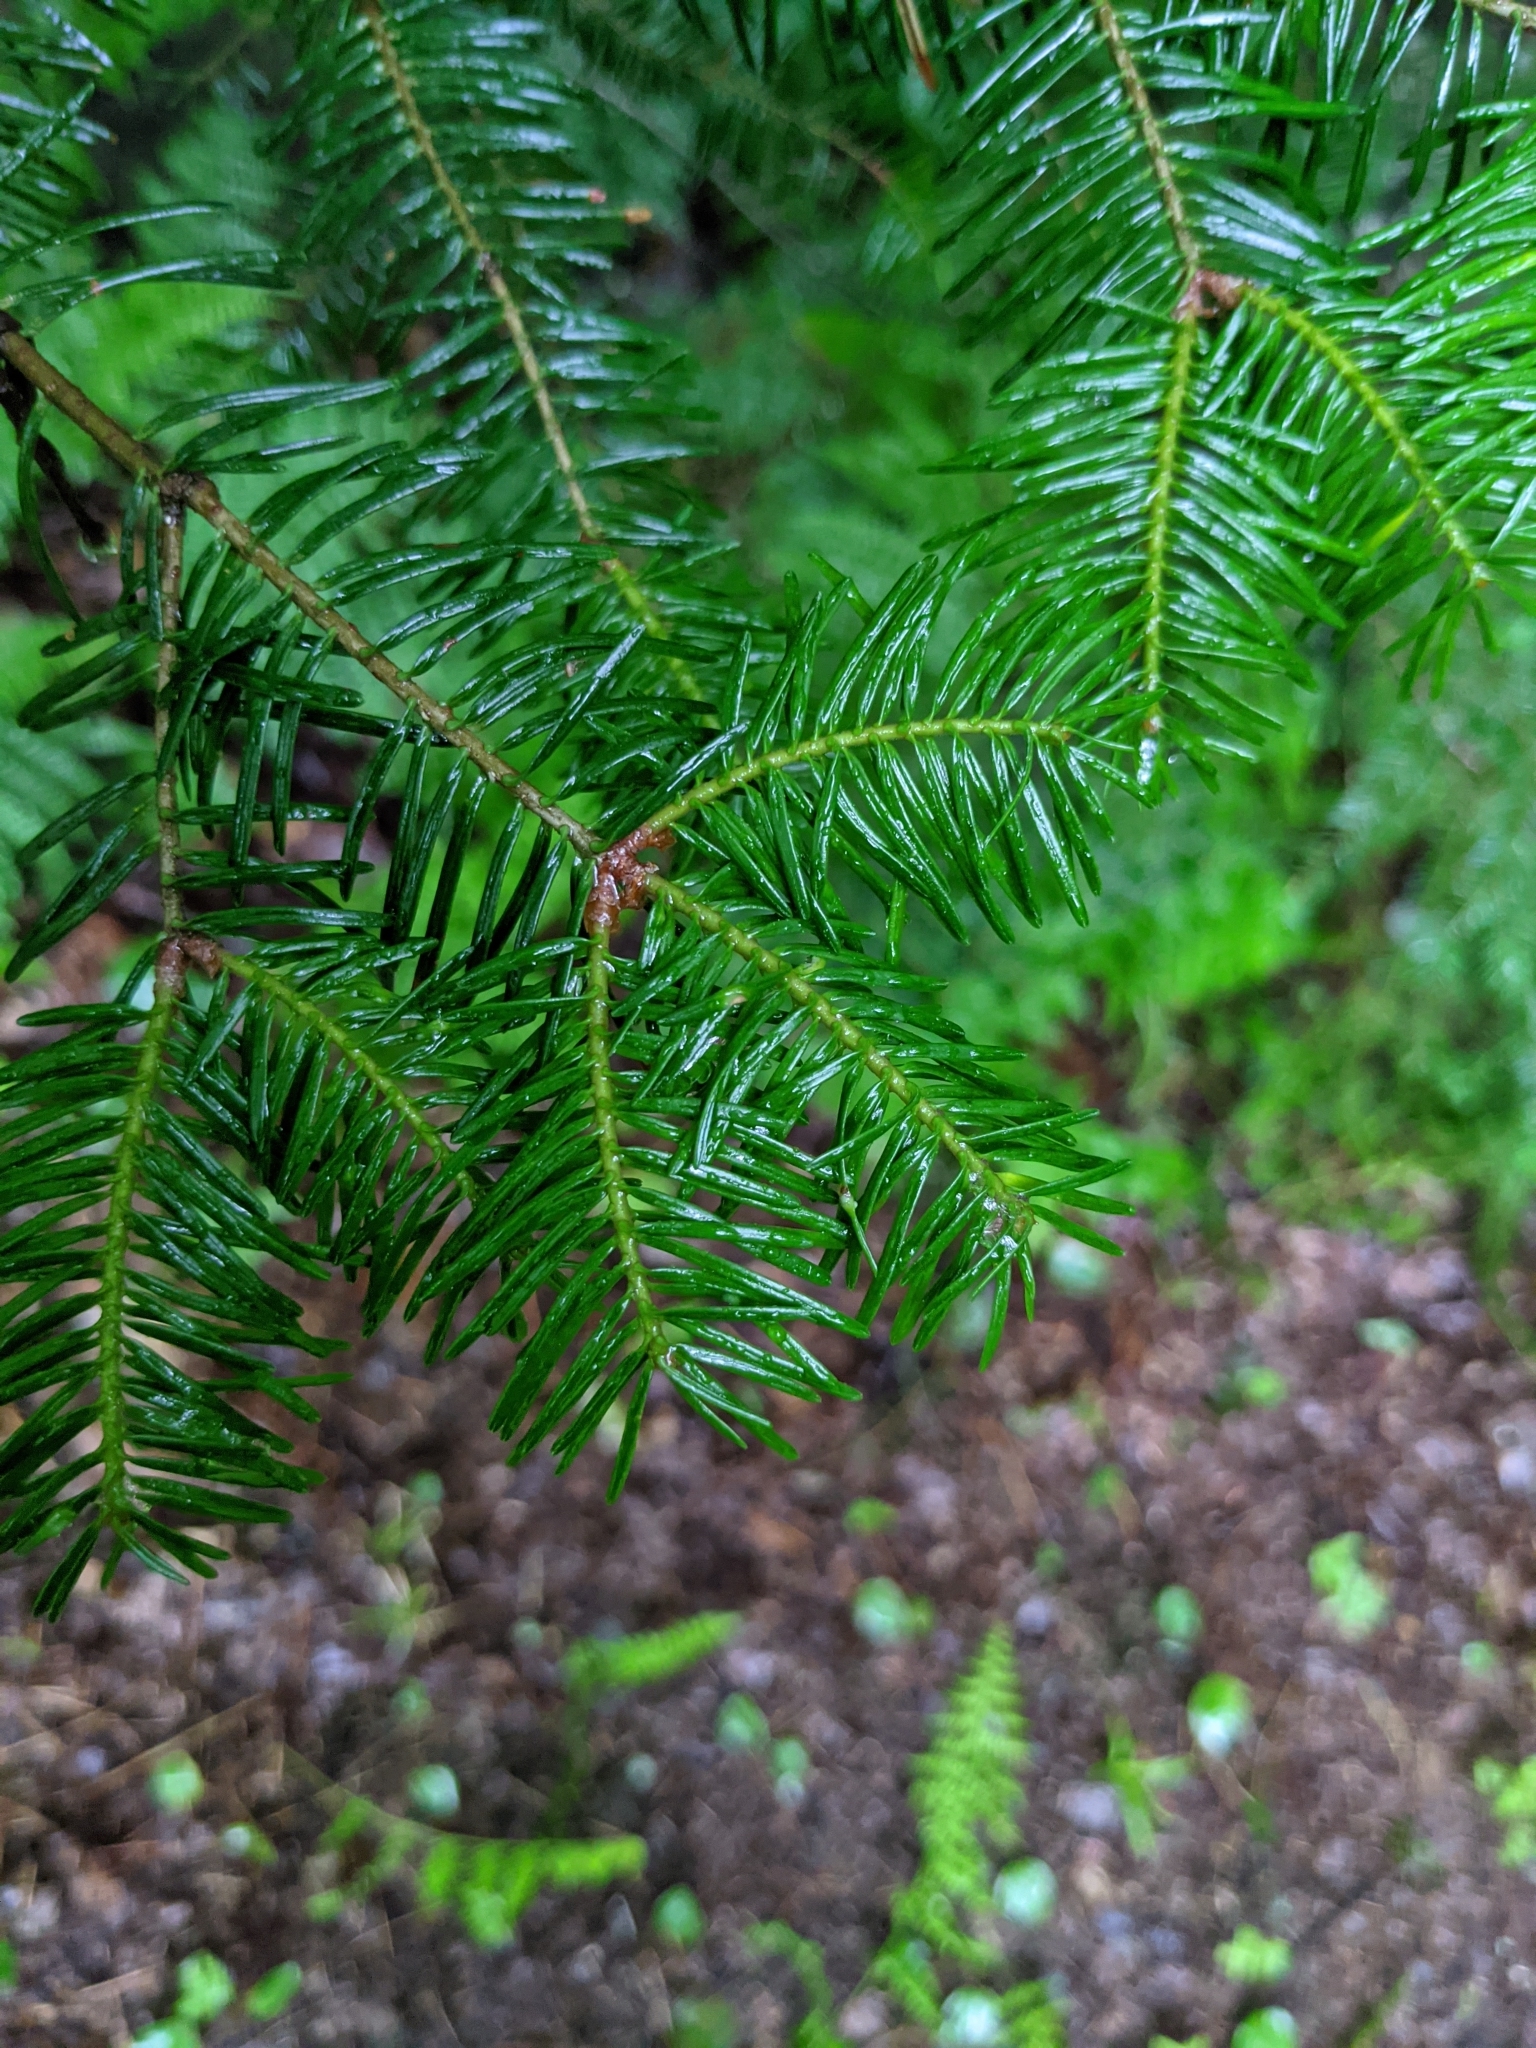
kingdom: Plantae
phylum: Tracheophyta
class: Pinopsida
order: Pinales
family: Pinaceae
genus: Abies
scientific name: Abies balsamea
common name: Balsam fir
